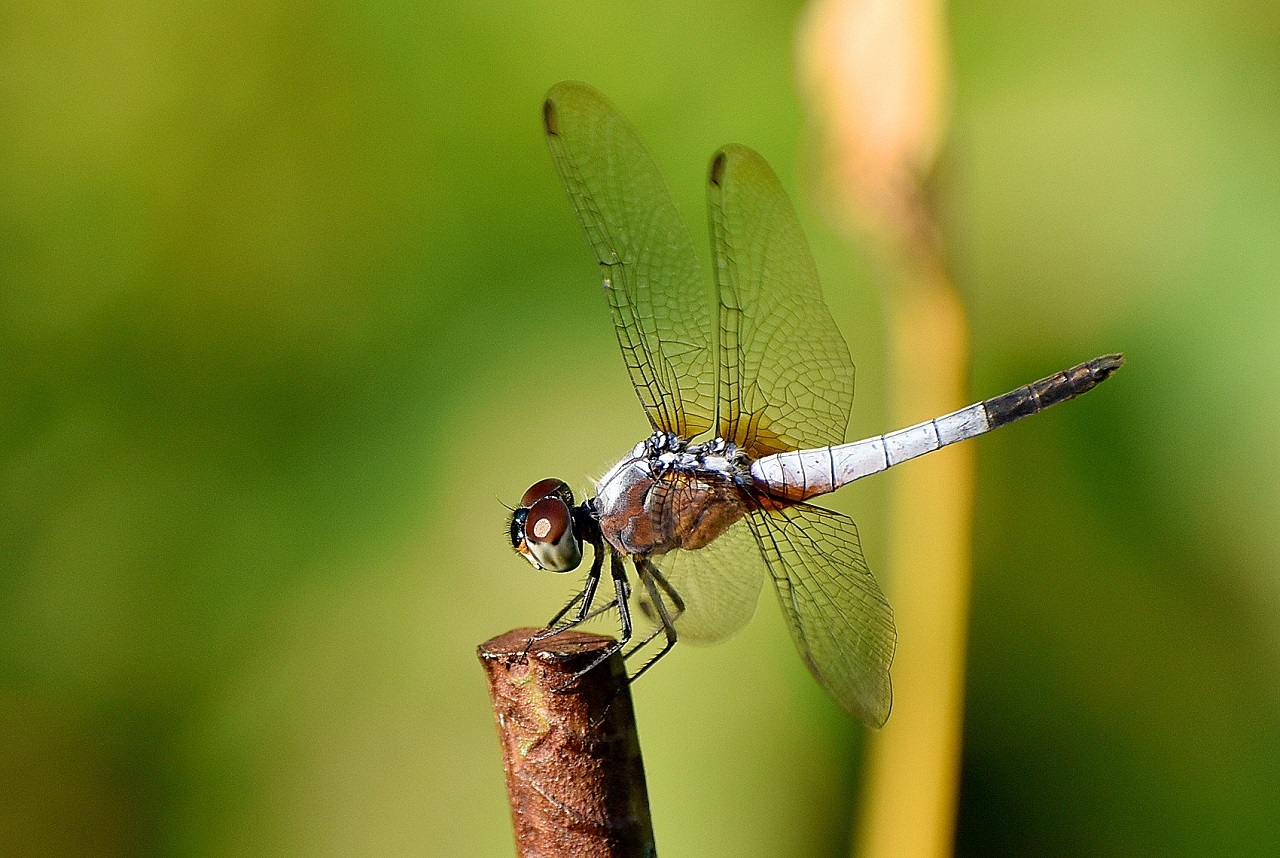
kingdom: Animalia
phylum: Arthropoda
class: Insecta
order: Odonata
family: Libellulidae
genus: Brachydiplax
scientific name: Brachydiplax chalybea
